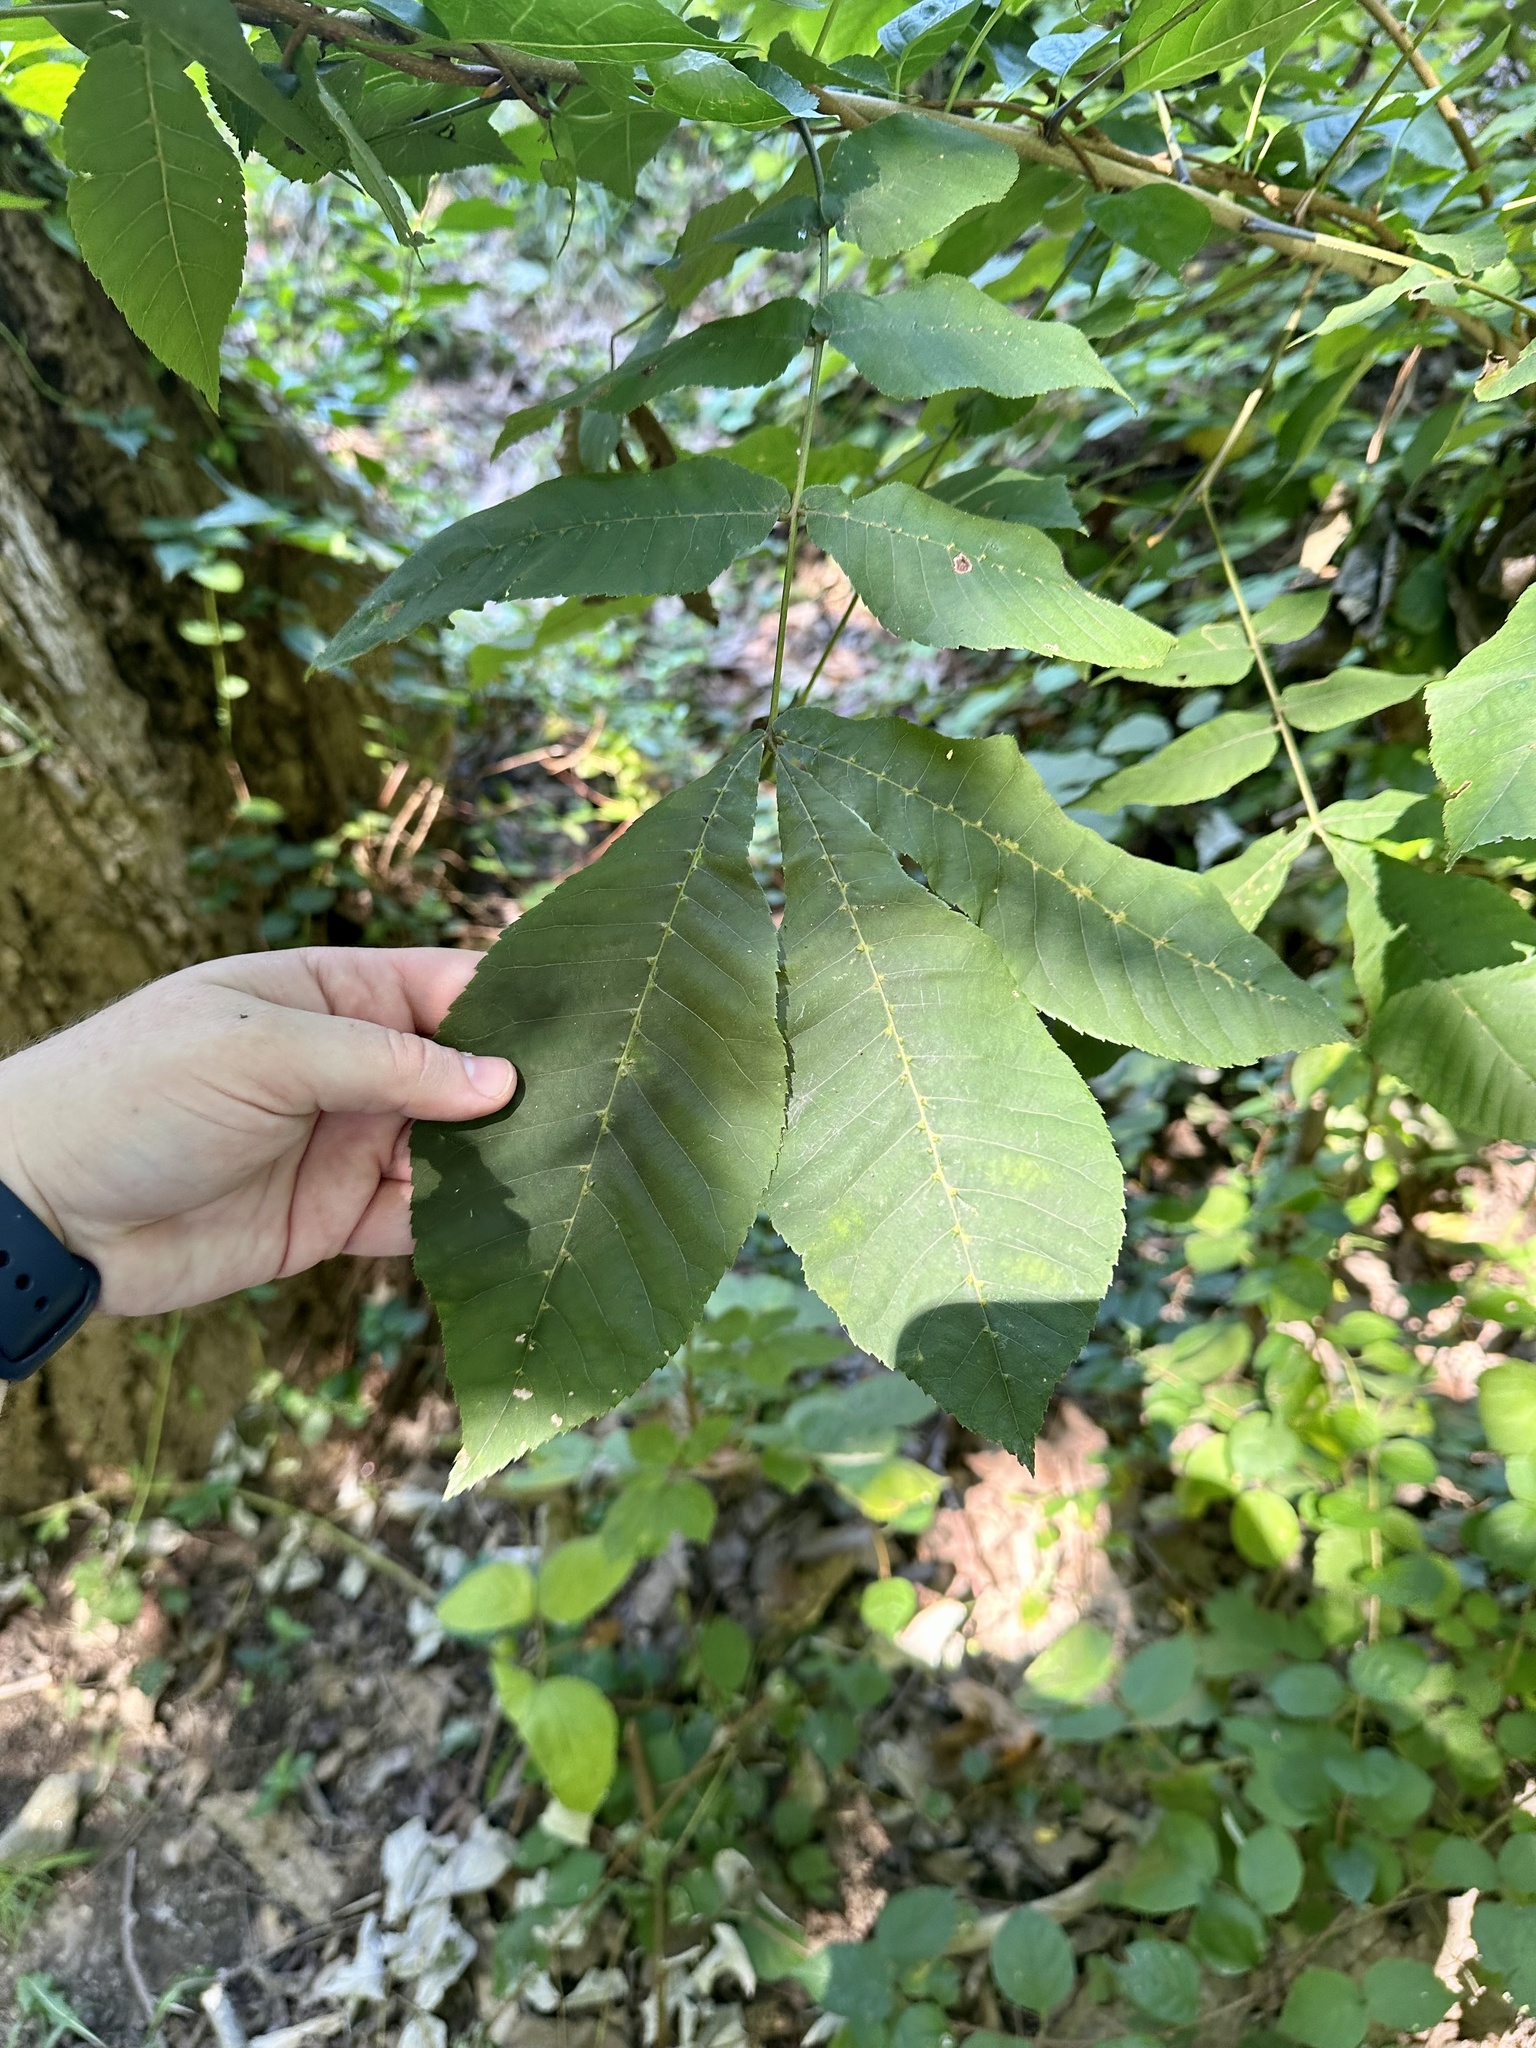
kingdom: Animalia
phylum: Arthropoda
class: Arachnida
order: Trombidiformes
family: Eriophyidae
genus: Aceria
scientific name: Aceria
